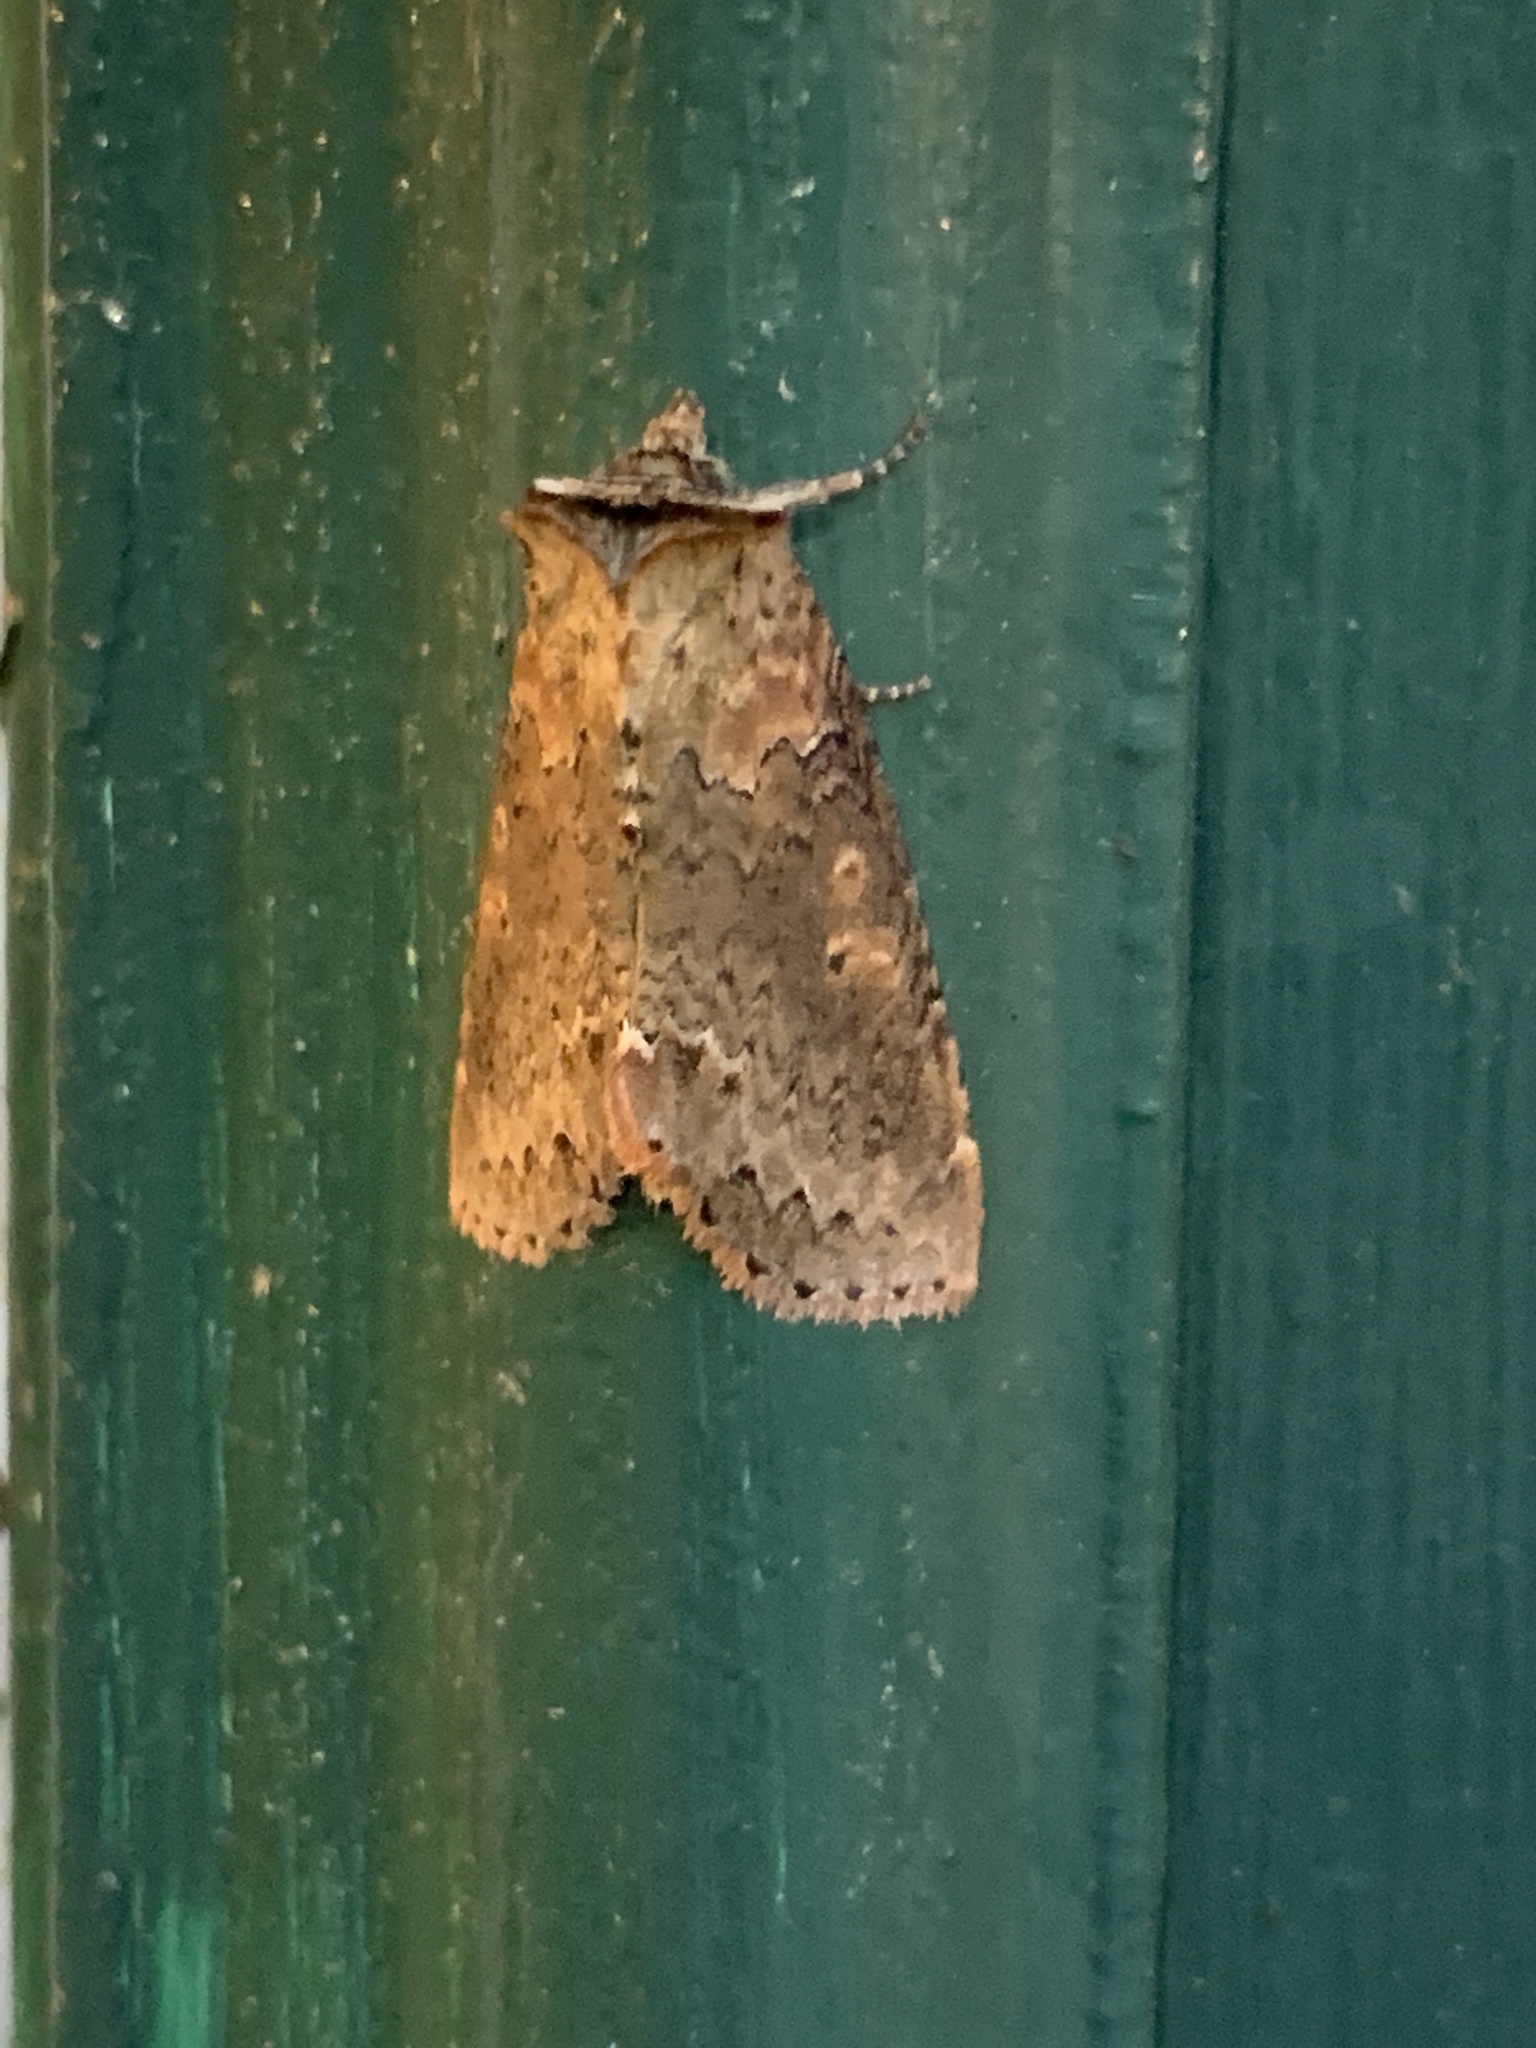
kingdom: Animalia
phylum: Arthropoda
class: Insecta
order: Lepidoptera
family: Drepanidae
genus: Pseudothyatira
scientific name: Pseudothyatira cymatophoroides
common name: Tufted thyatirid moth
